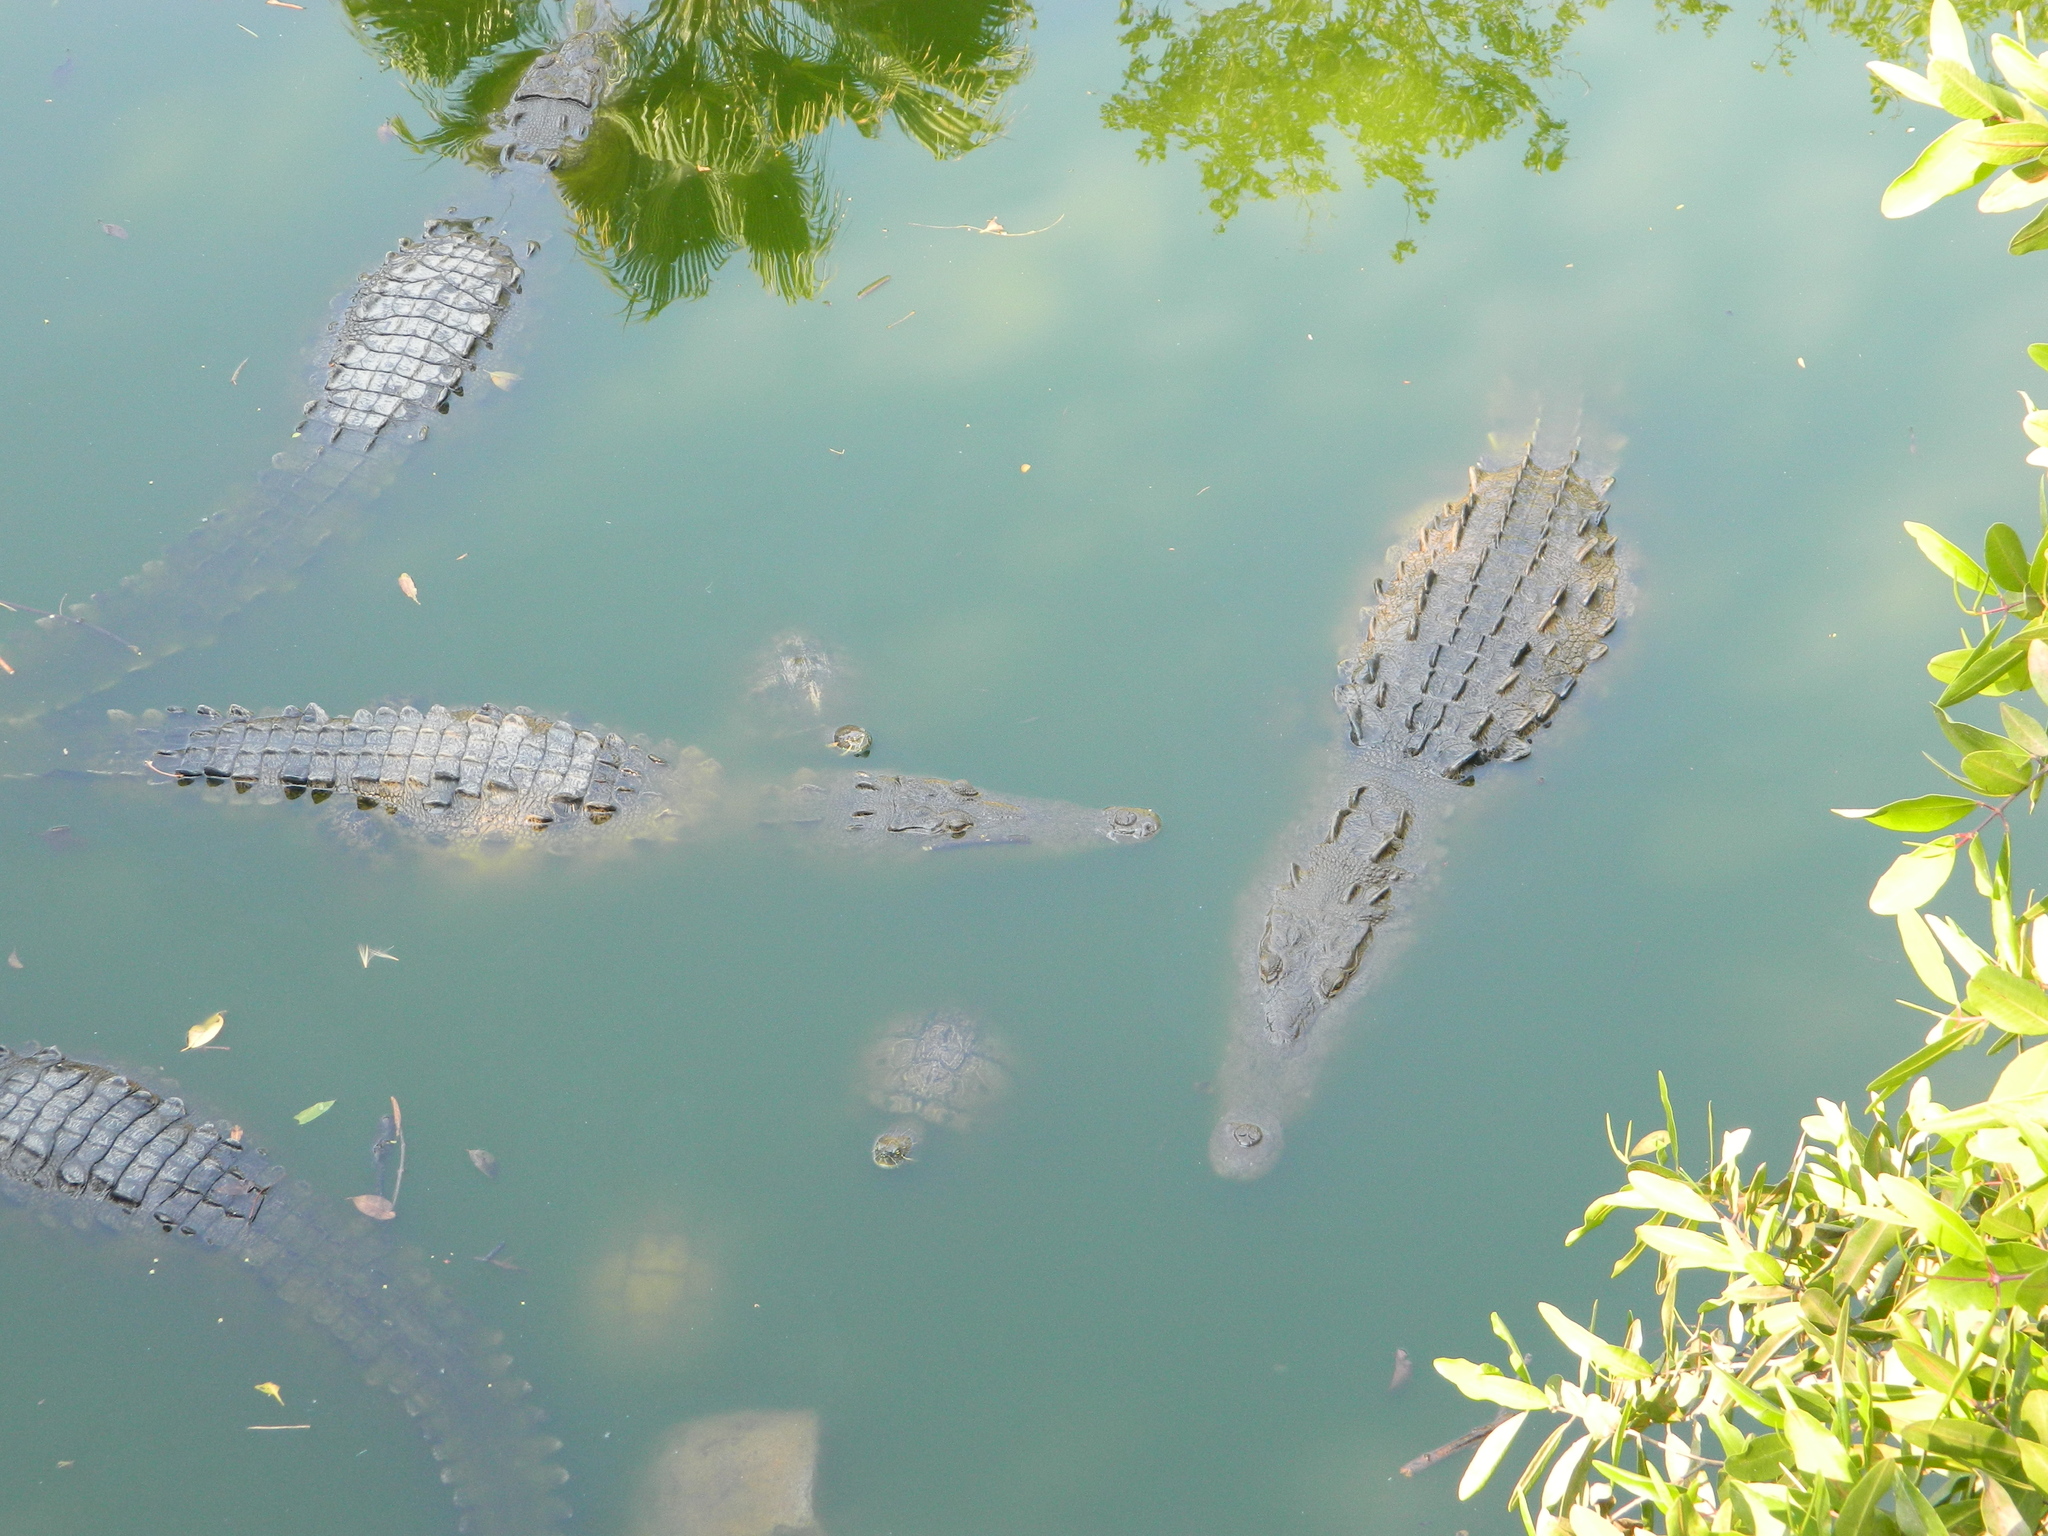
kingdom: Animalia
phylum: Chordata
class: Crocodylia
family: Crocodylidae
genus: Crocodylus
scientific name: Crocodylus acutus
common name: American crocodile
